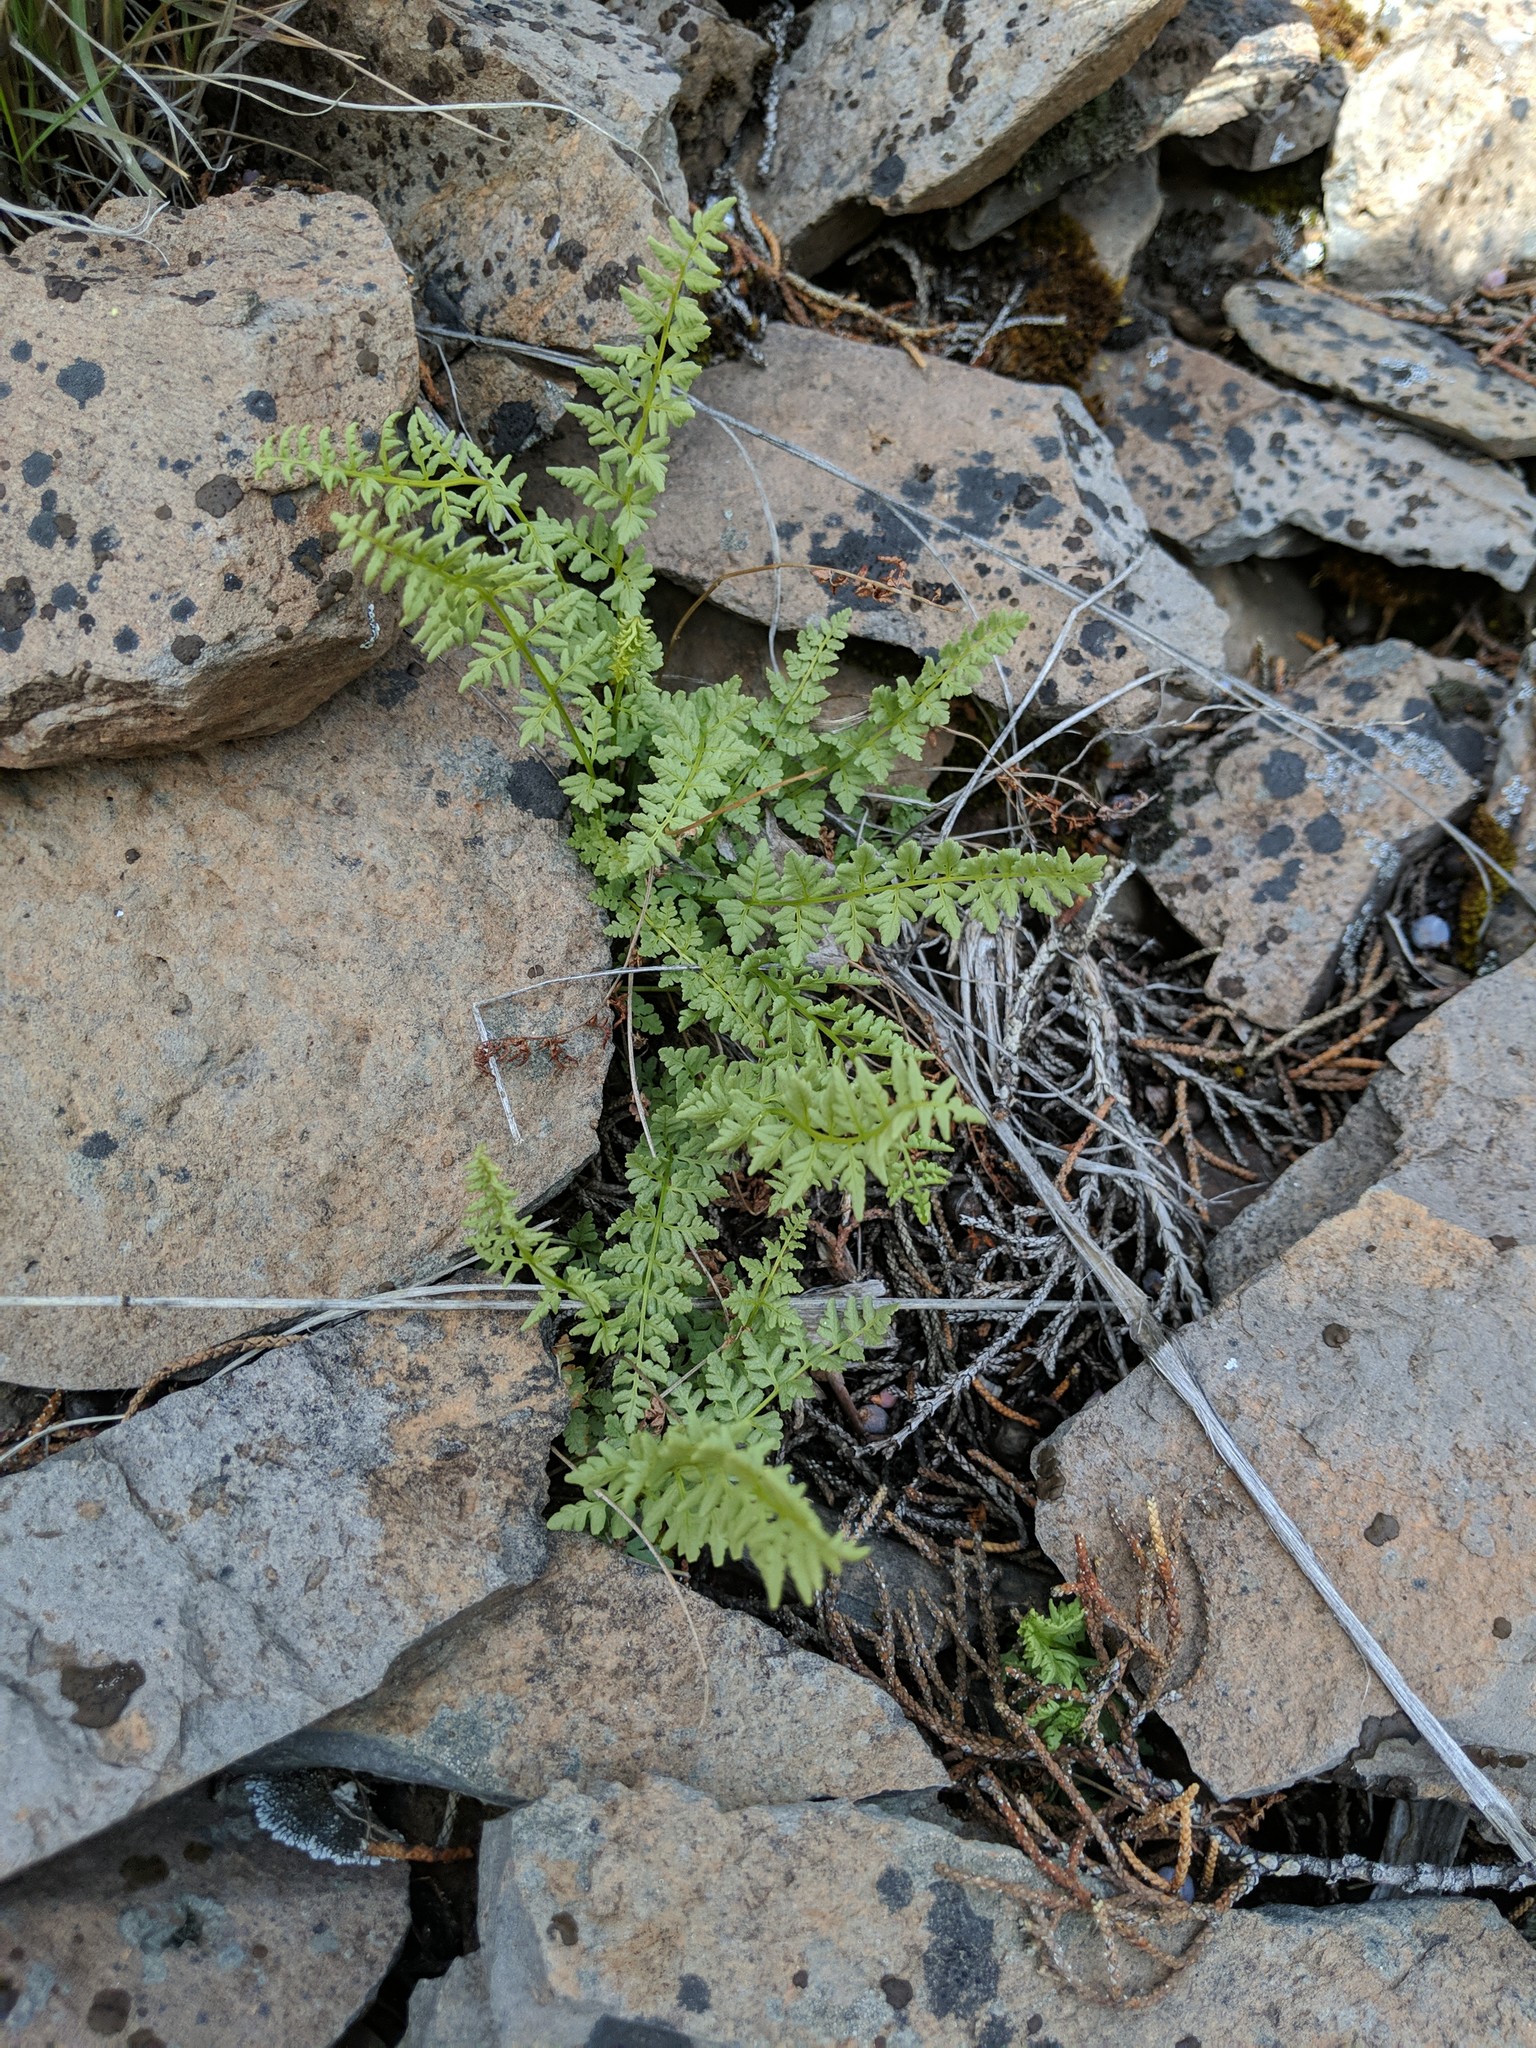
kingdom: Plantae
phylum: Tracheophyta
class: Polypodiopsida
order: Polypodiales
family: Woodsiaceae
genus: Physematium
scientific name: Physematium oreganum
